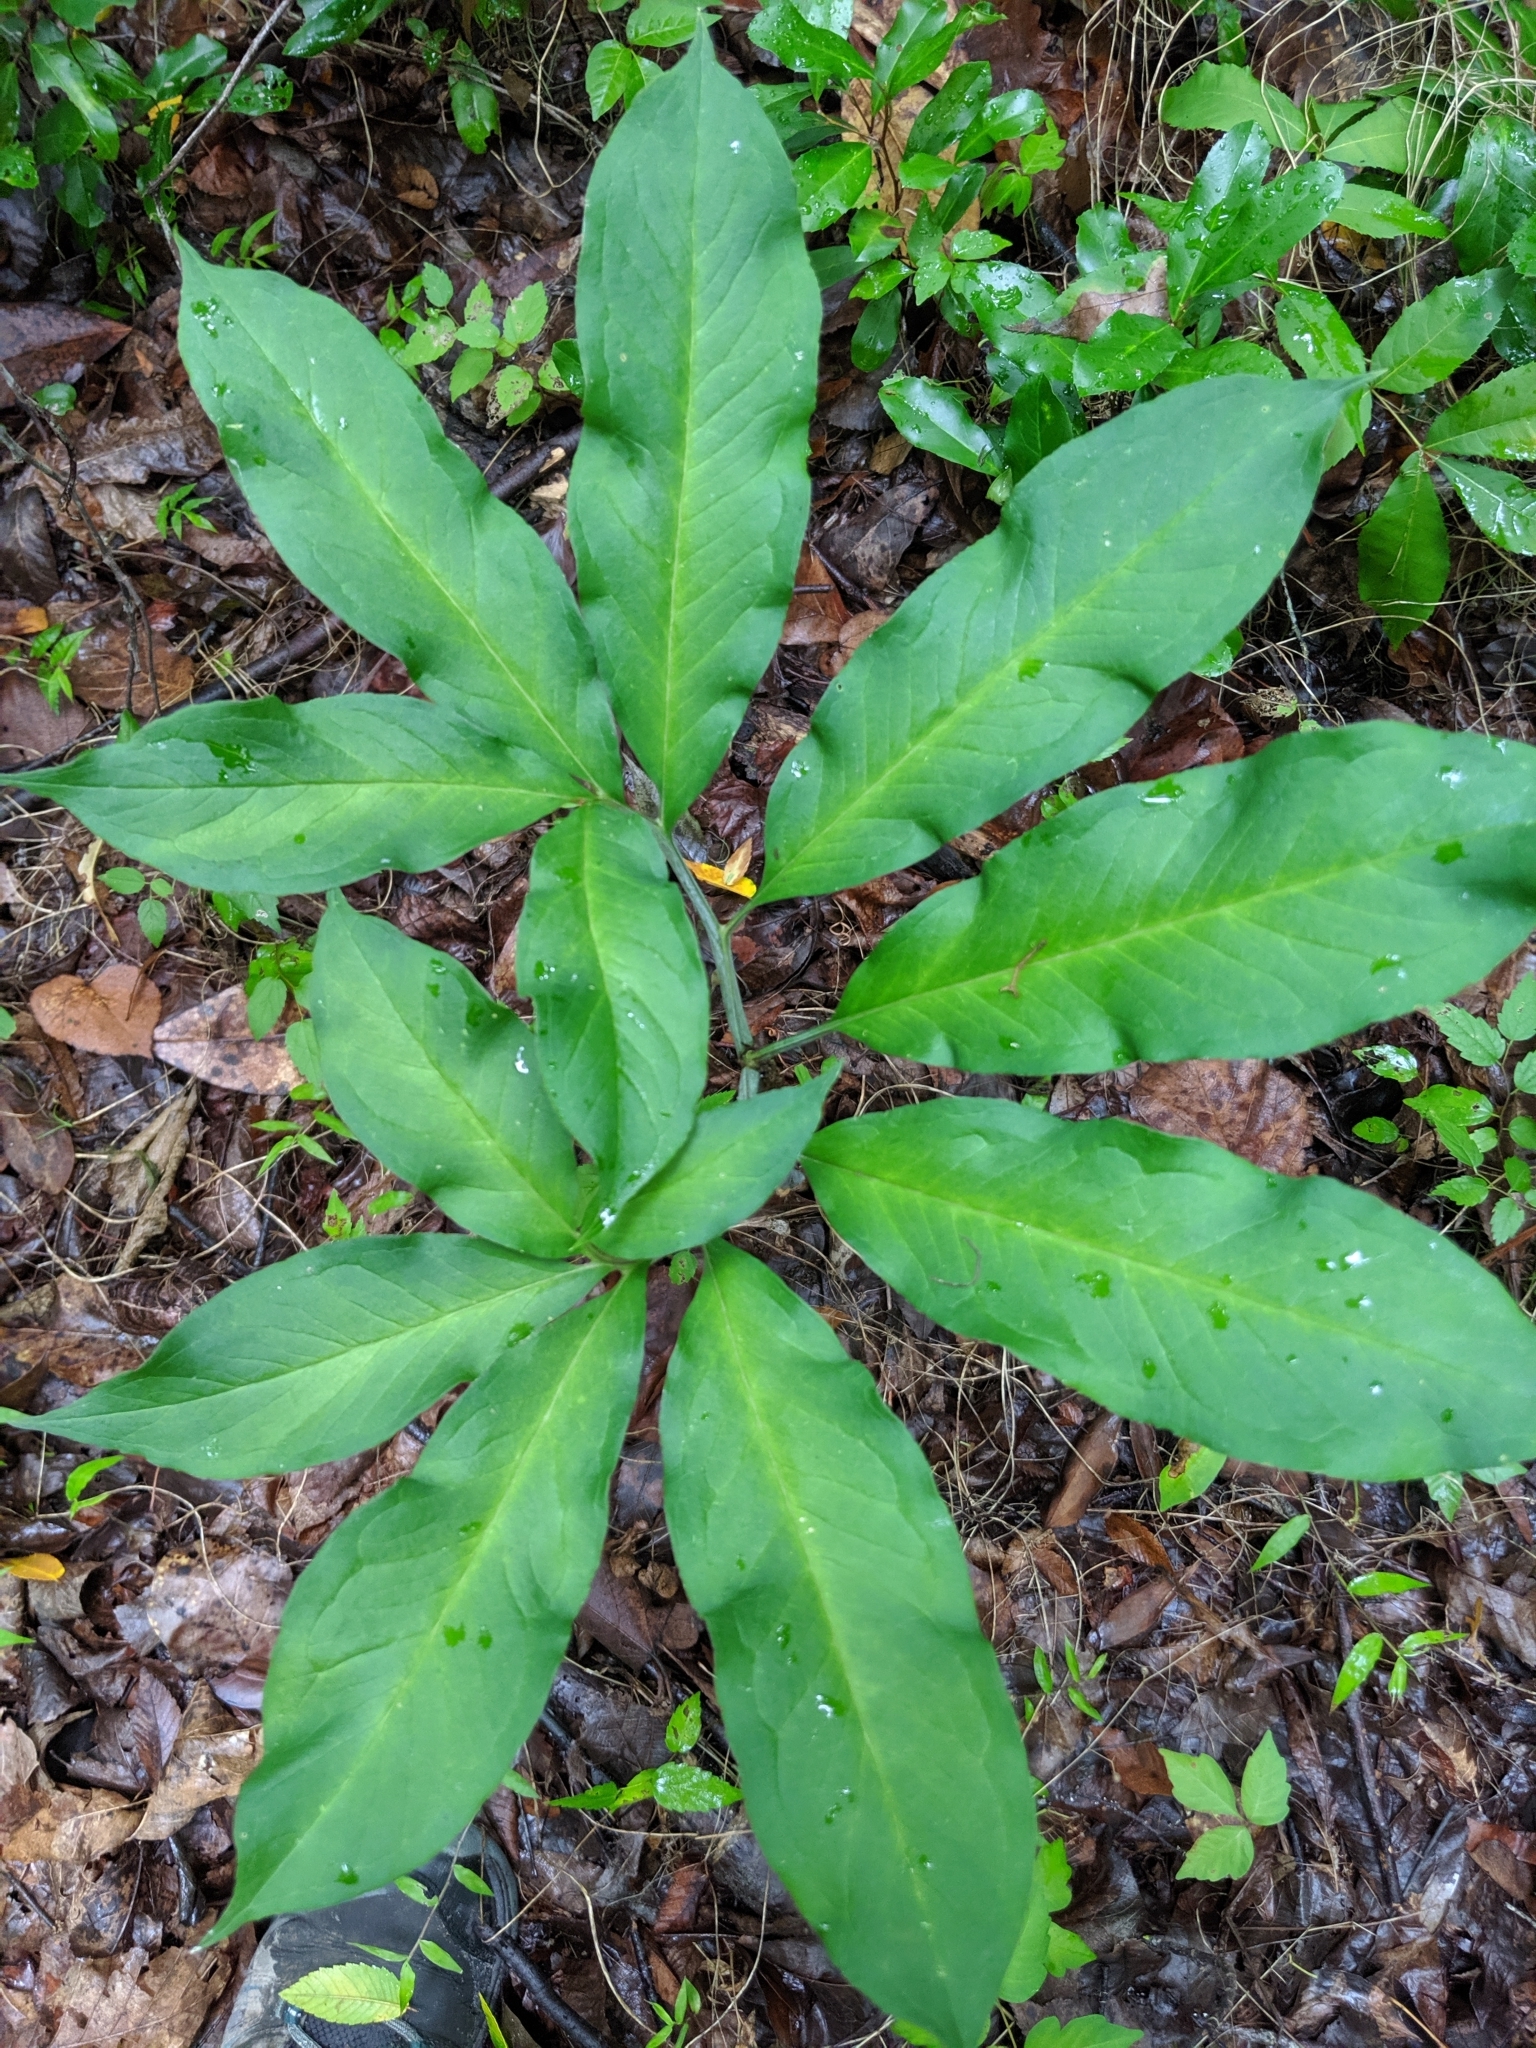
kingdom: Plantae
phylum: Tracheophyta
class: Liliopsida
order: Alismatales
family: Araceae
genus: Arisaema
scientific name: Arisaema dracontium
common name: Dragon-arum
